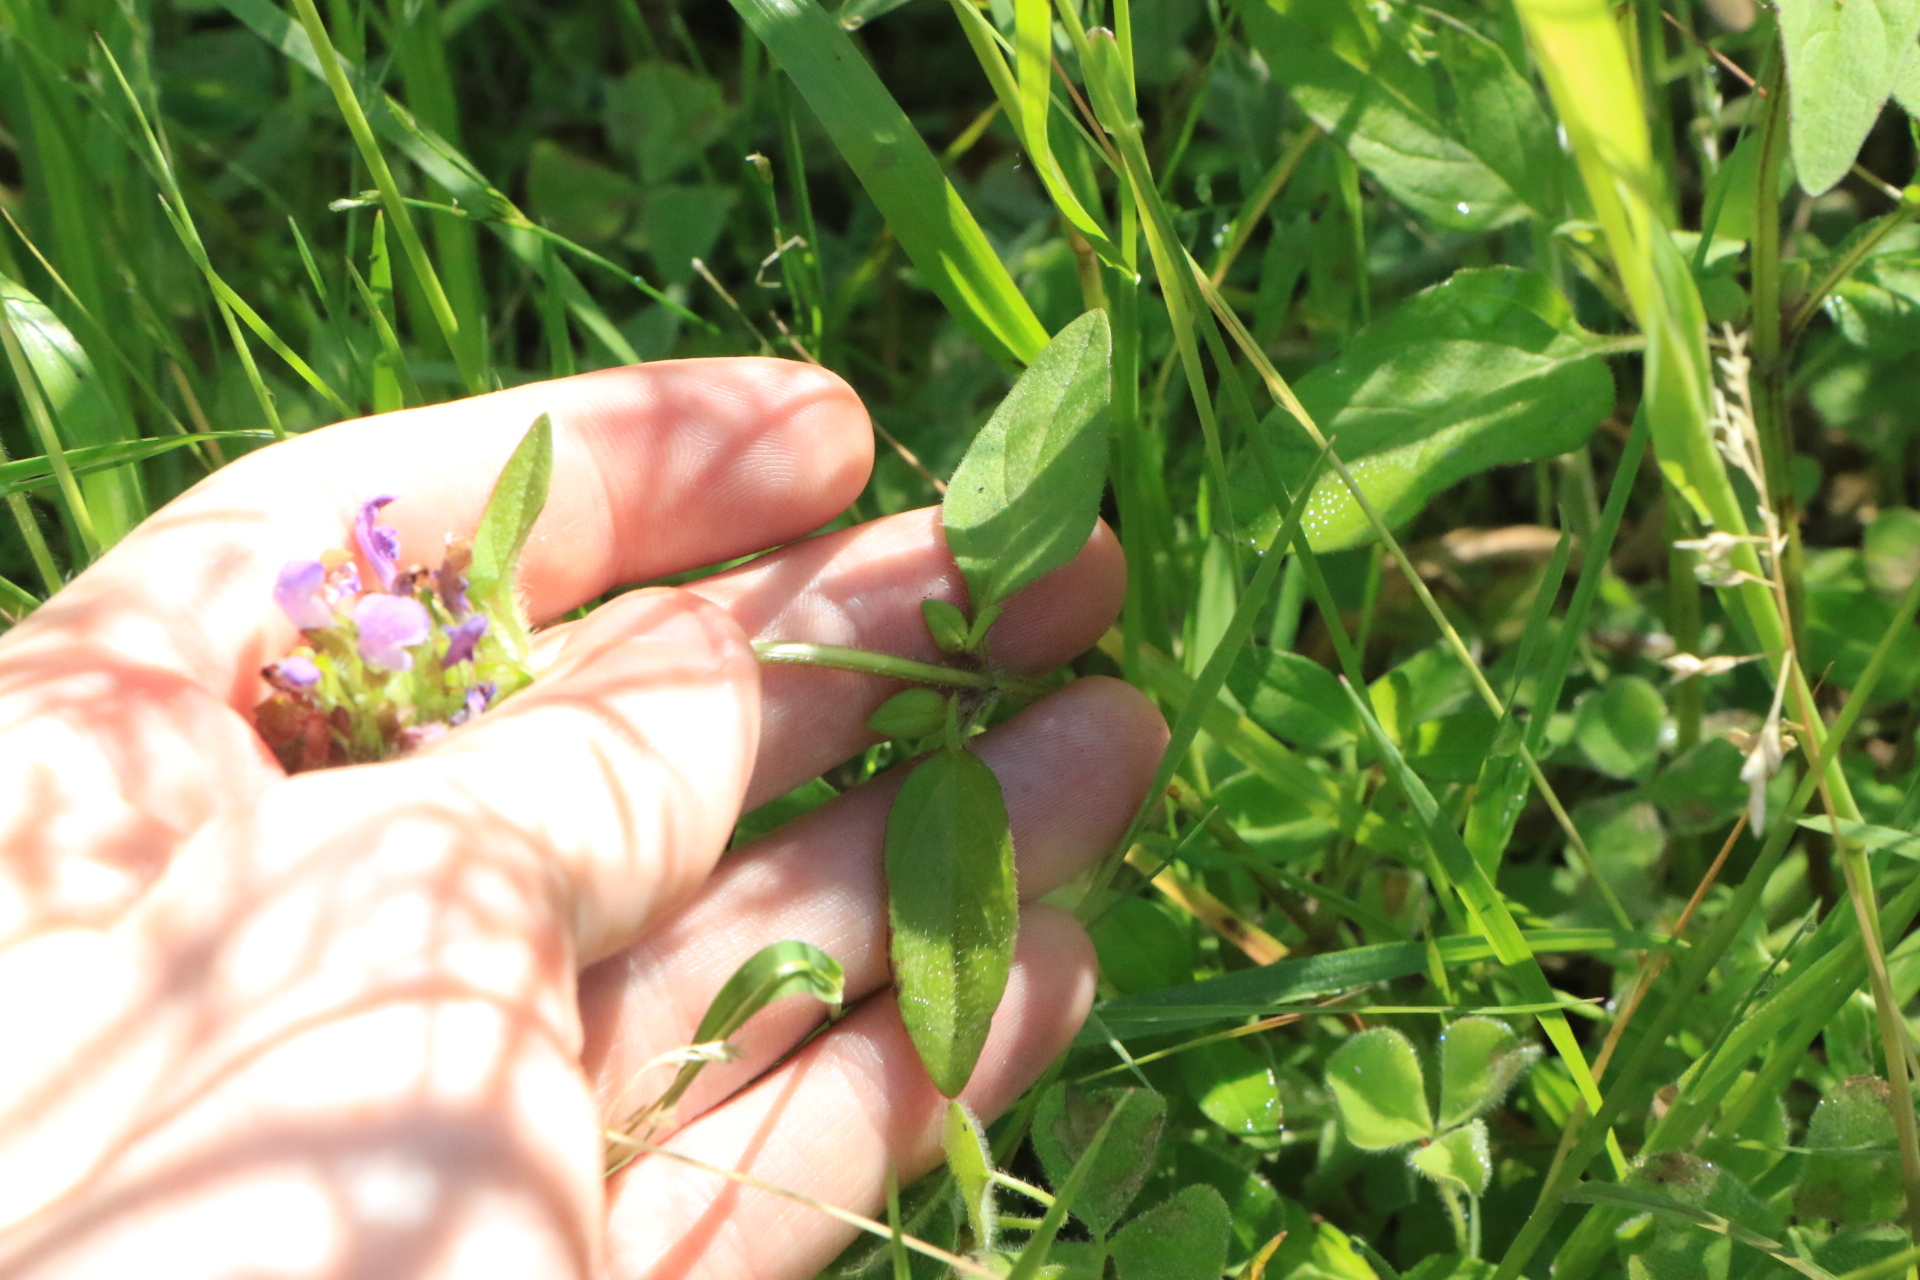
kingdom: Plantae
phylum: Tracheophyta
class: Magnoliopsida
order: Lamiales
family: Lamiaceae
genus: Prunella
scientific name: Prunella vulgaris
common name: Heal-all
